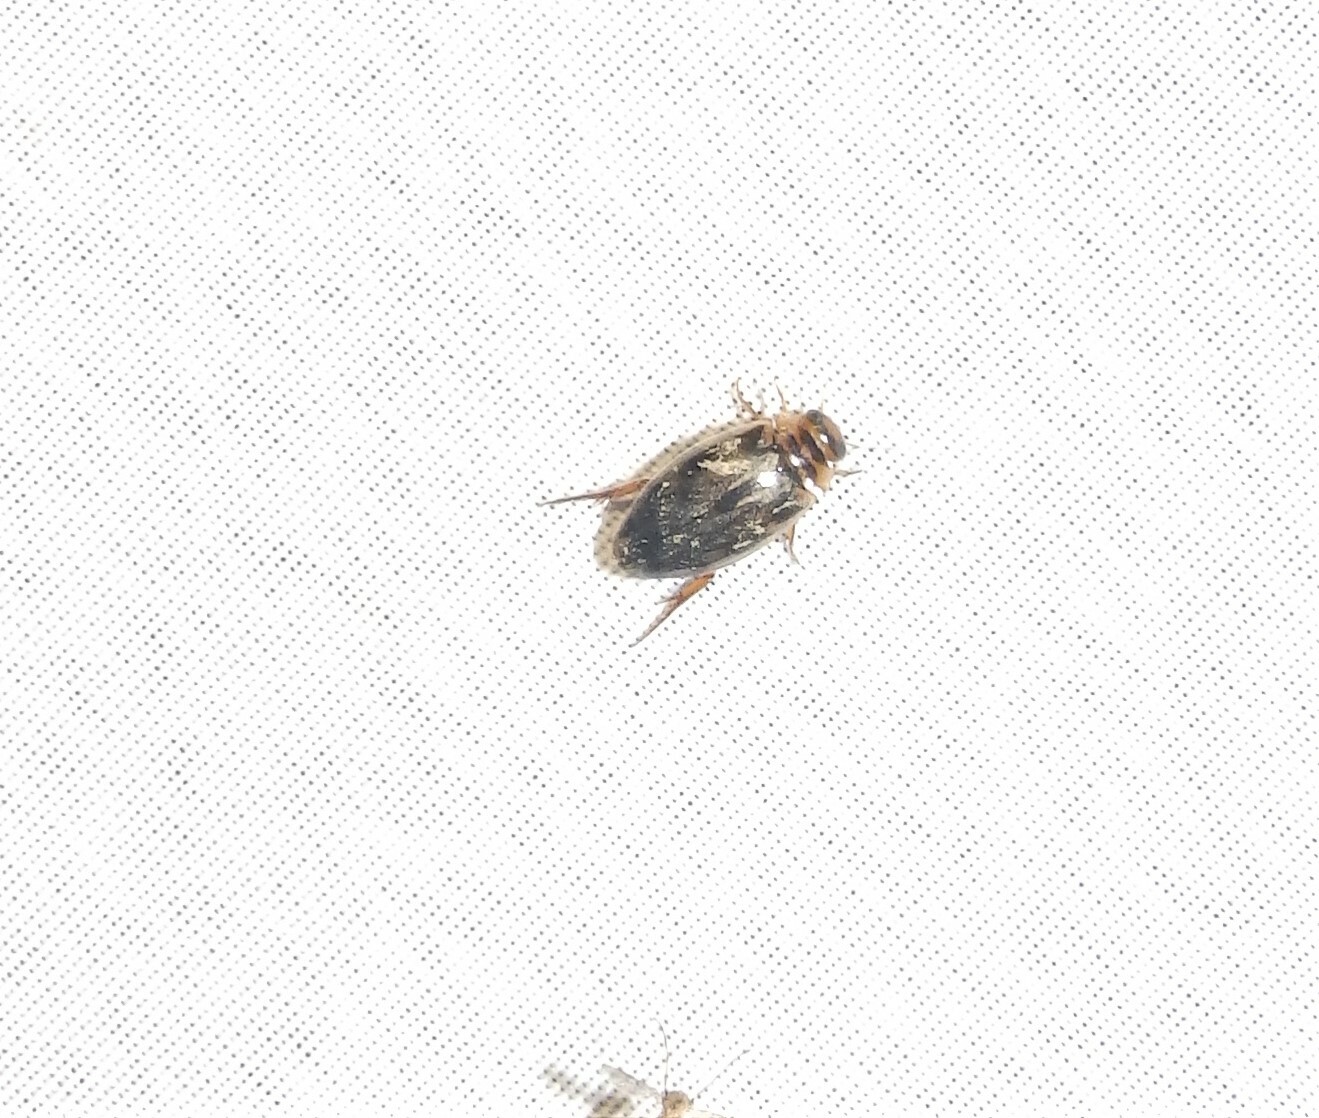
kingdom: Animalia
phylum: Arthropoda
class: Insecta
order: Coleoptera
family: Dytiscidae
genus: Coptotomus
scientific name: Coptotomus
